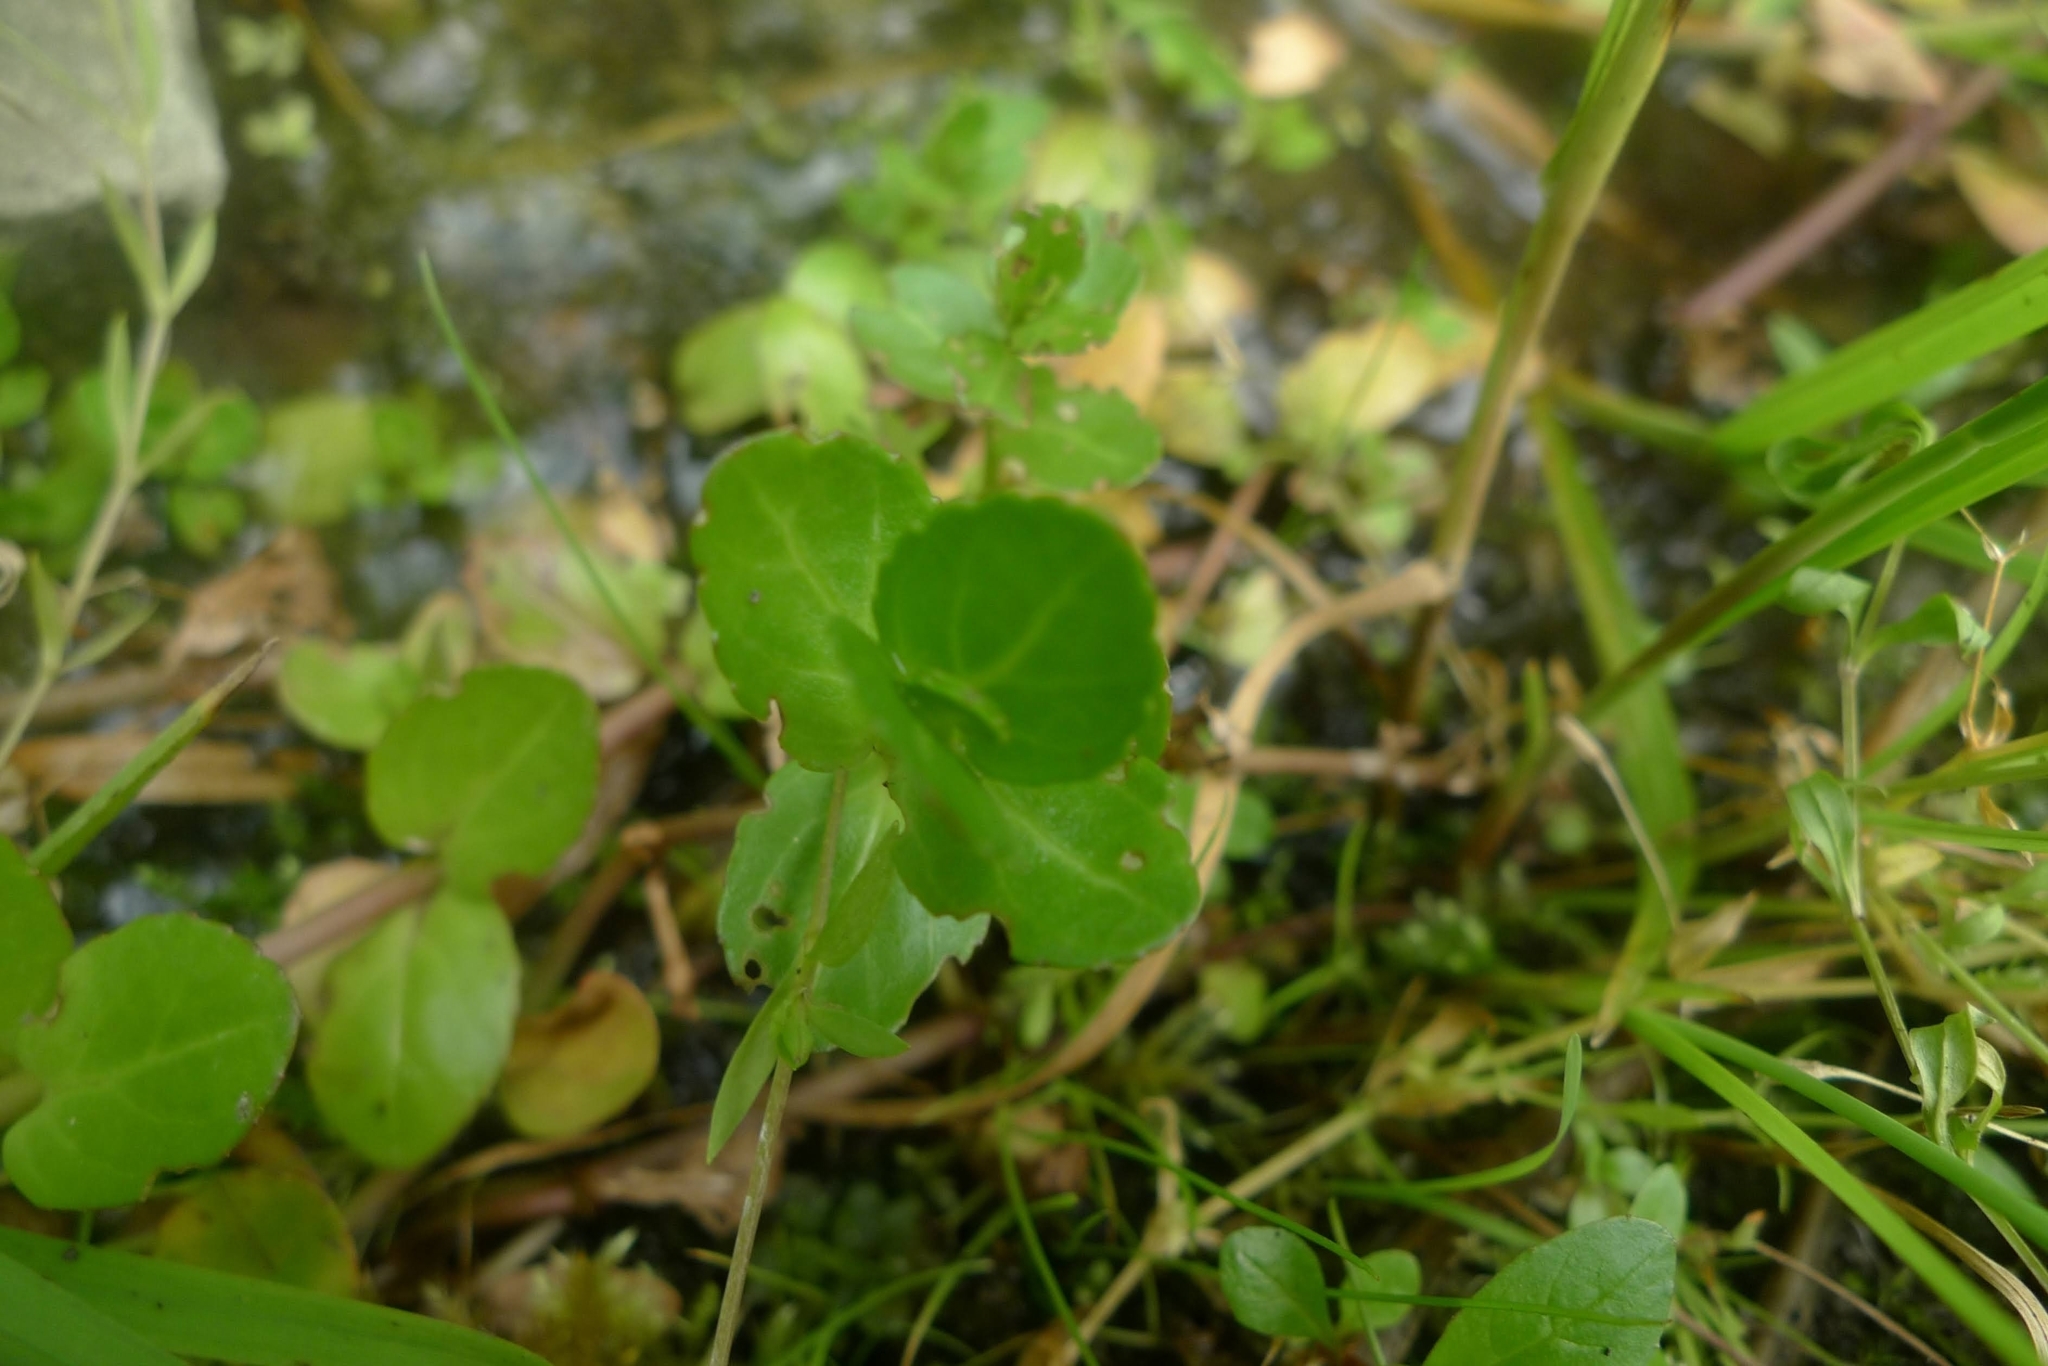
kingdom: Plantae
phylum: Tracheophyta
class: Magnoliopsida
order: Lamiales
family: Plantaginaceae
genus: Veronica
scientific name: Veronica beccabunga
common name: Brooklime
